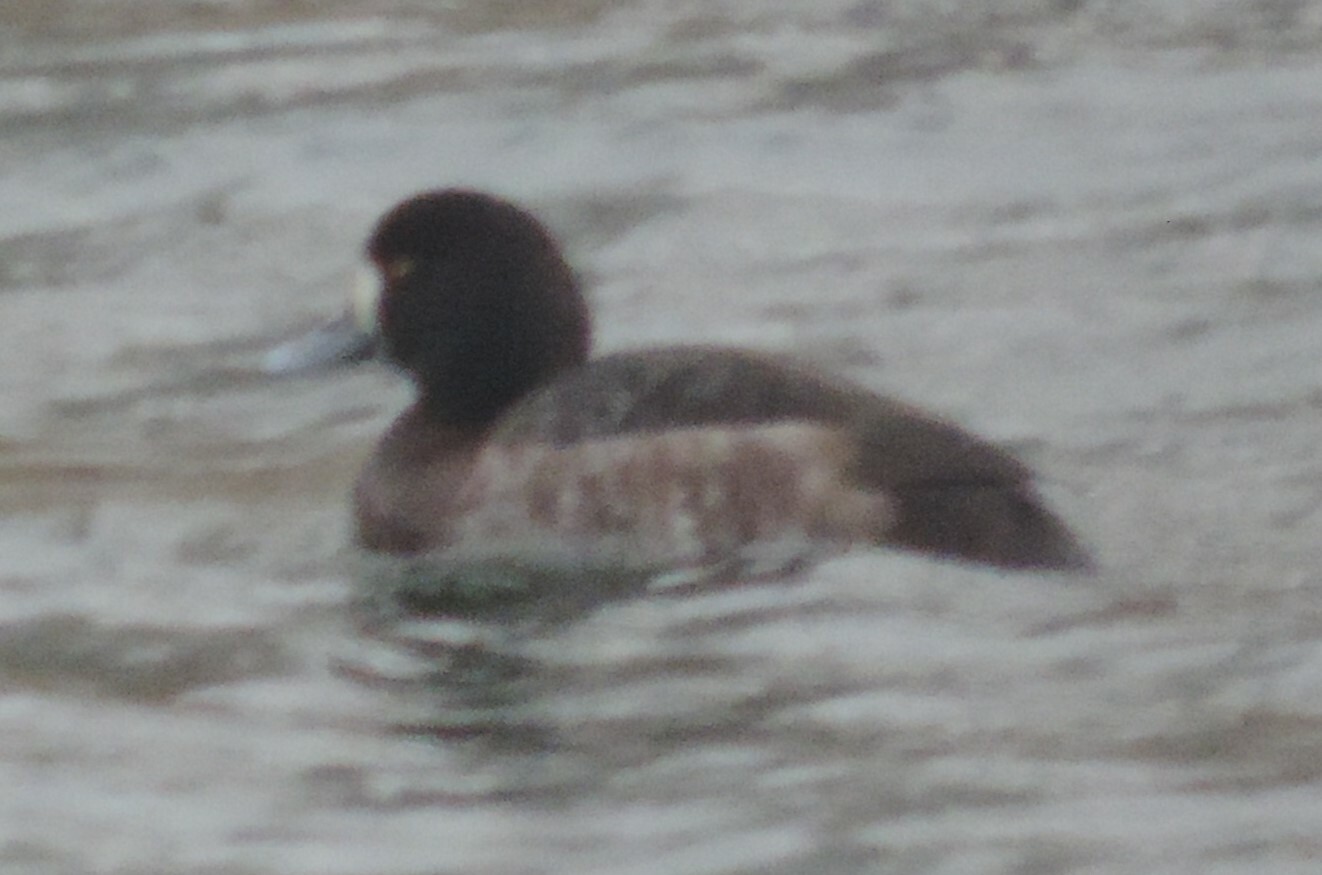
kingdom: Animalia
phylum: Chordata
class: Aves
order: Anseriformes
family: Anatidae
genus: Aythya
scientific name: Aythya marila
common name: Greater scaup
